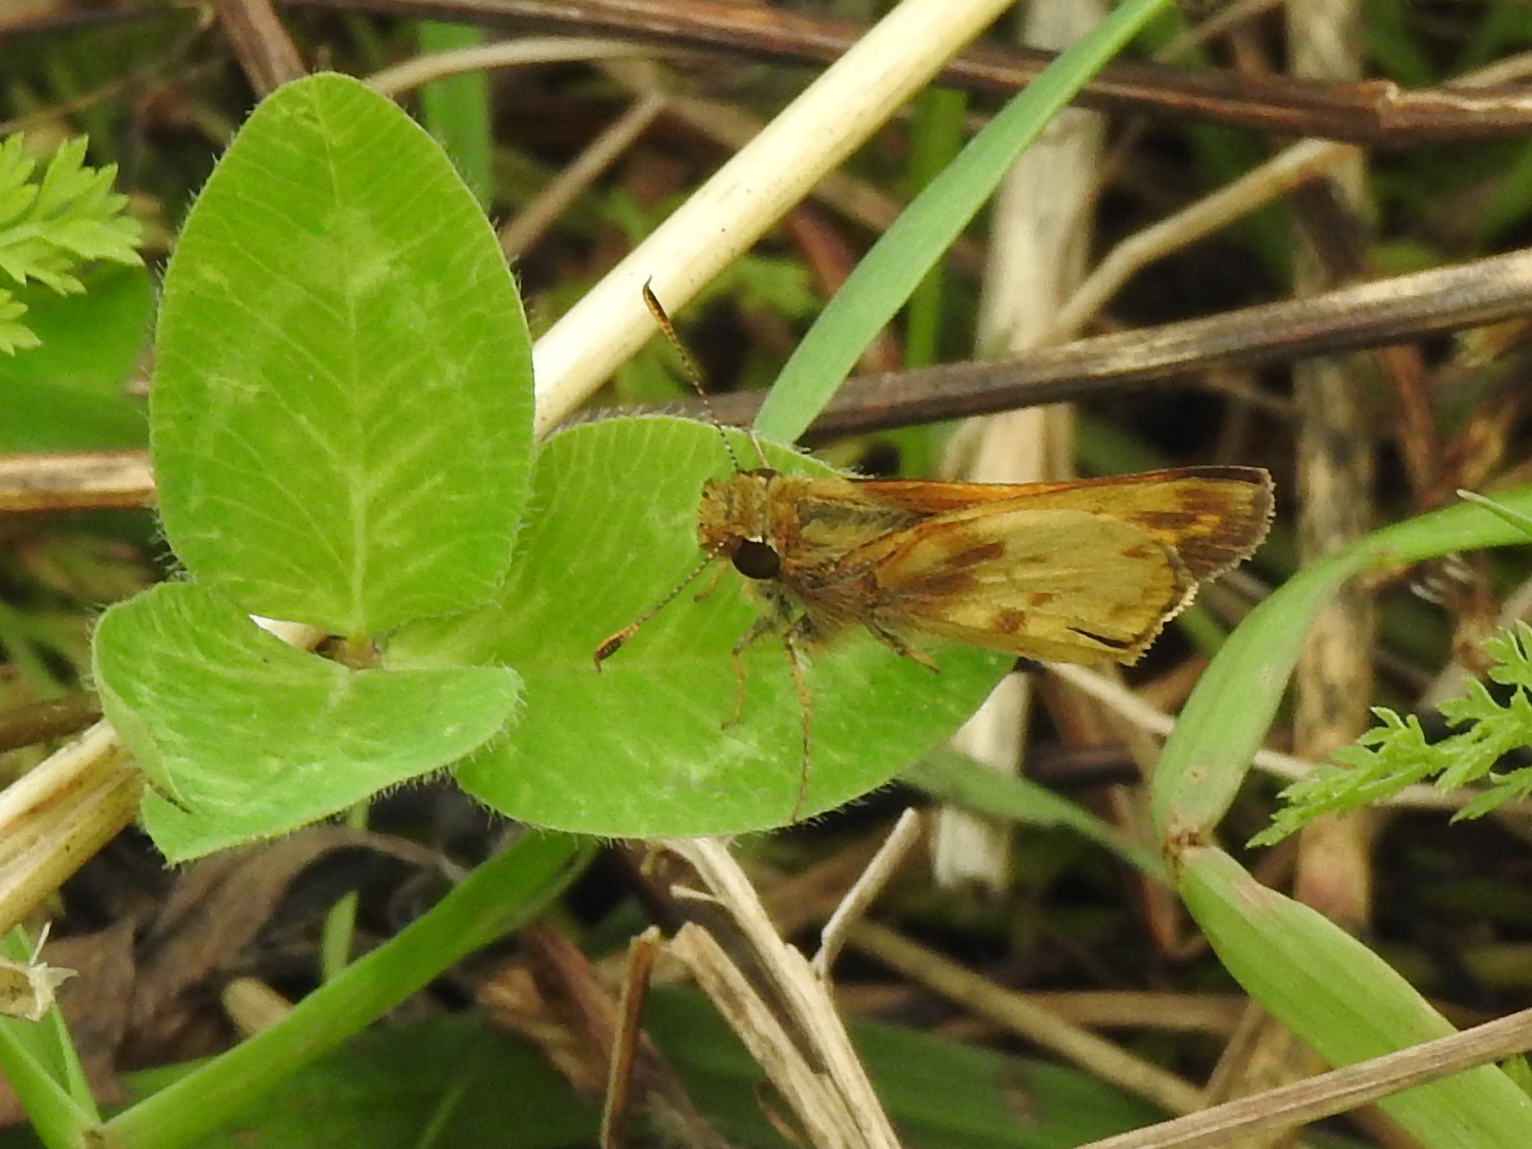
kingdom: Animalia
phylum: Arthropoda
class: Insecta
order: Lepidoptera
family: Hesperiidae
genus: Lon
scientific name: Lon zabulon
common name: Zabulon skipper
